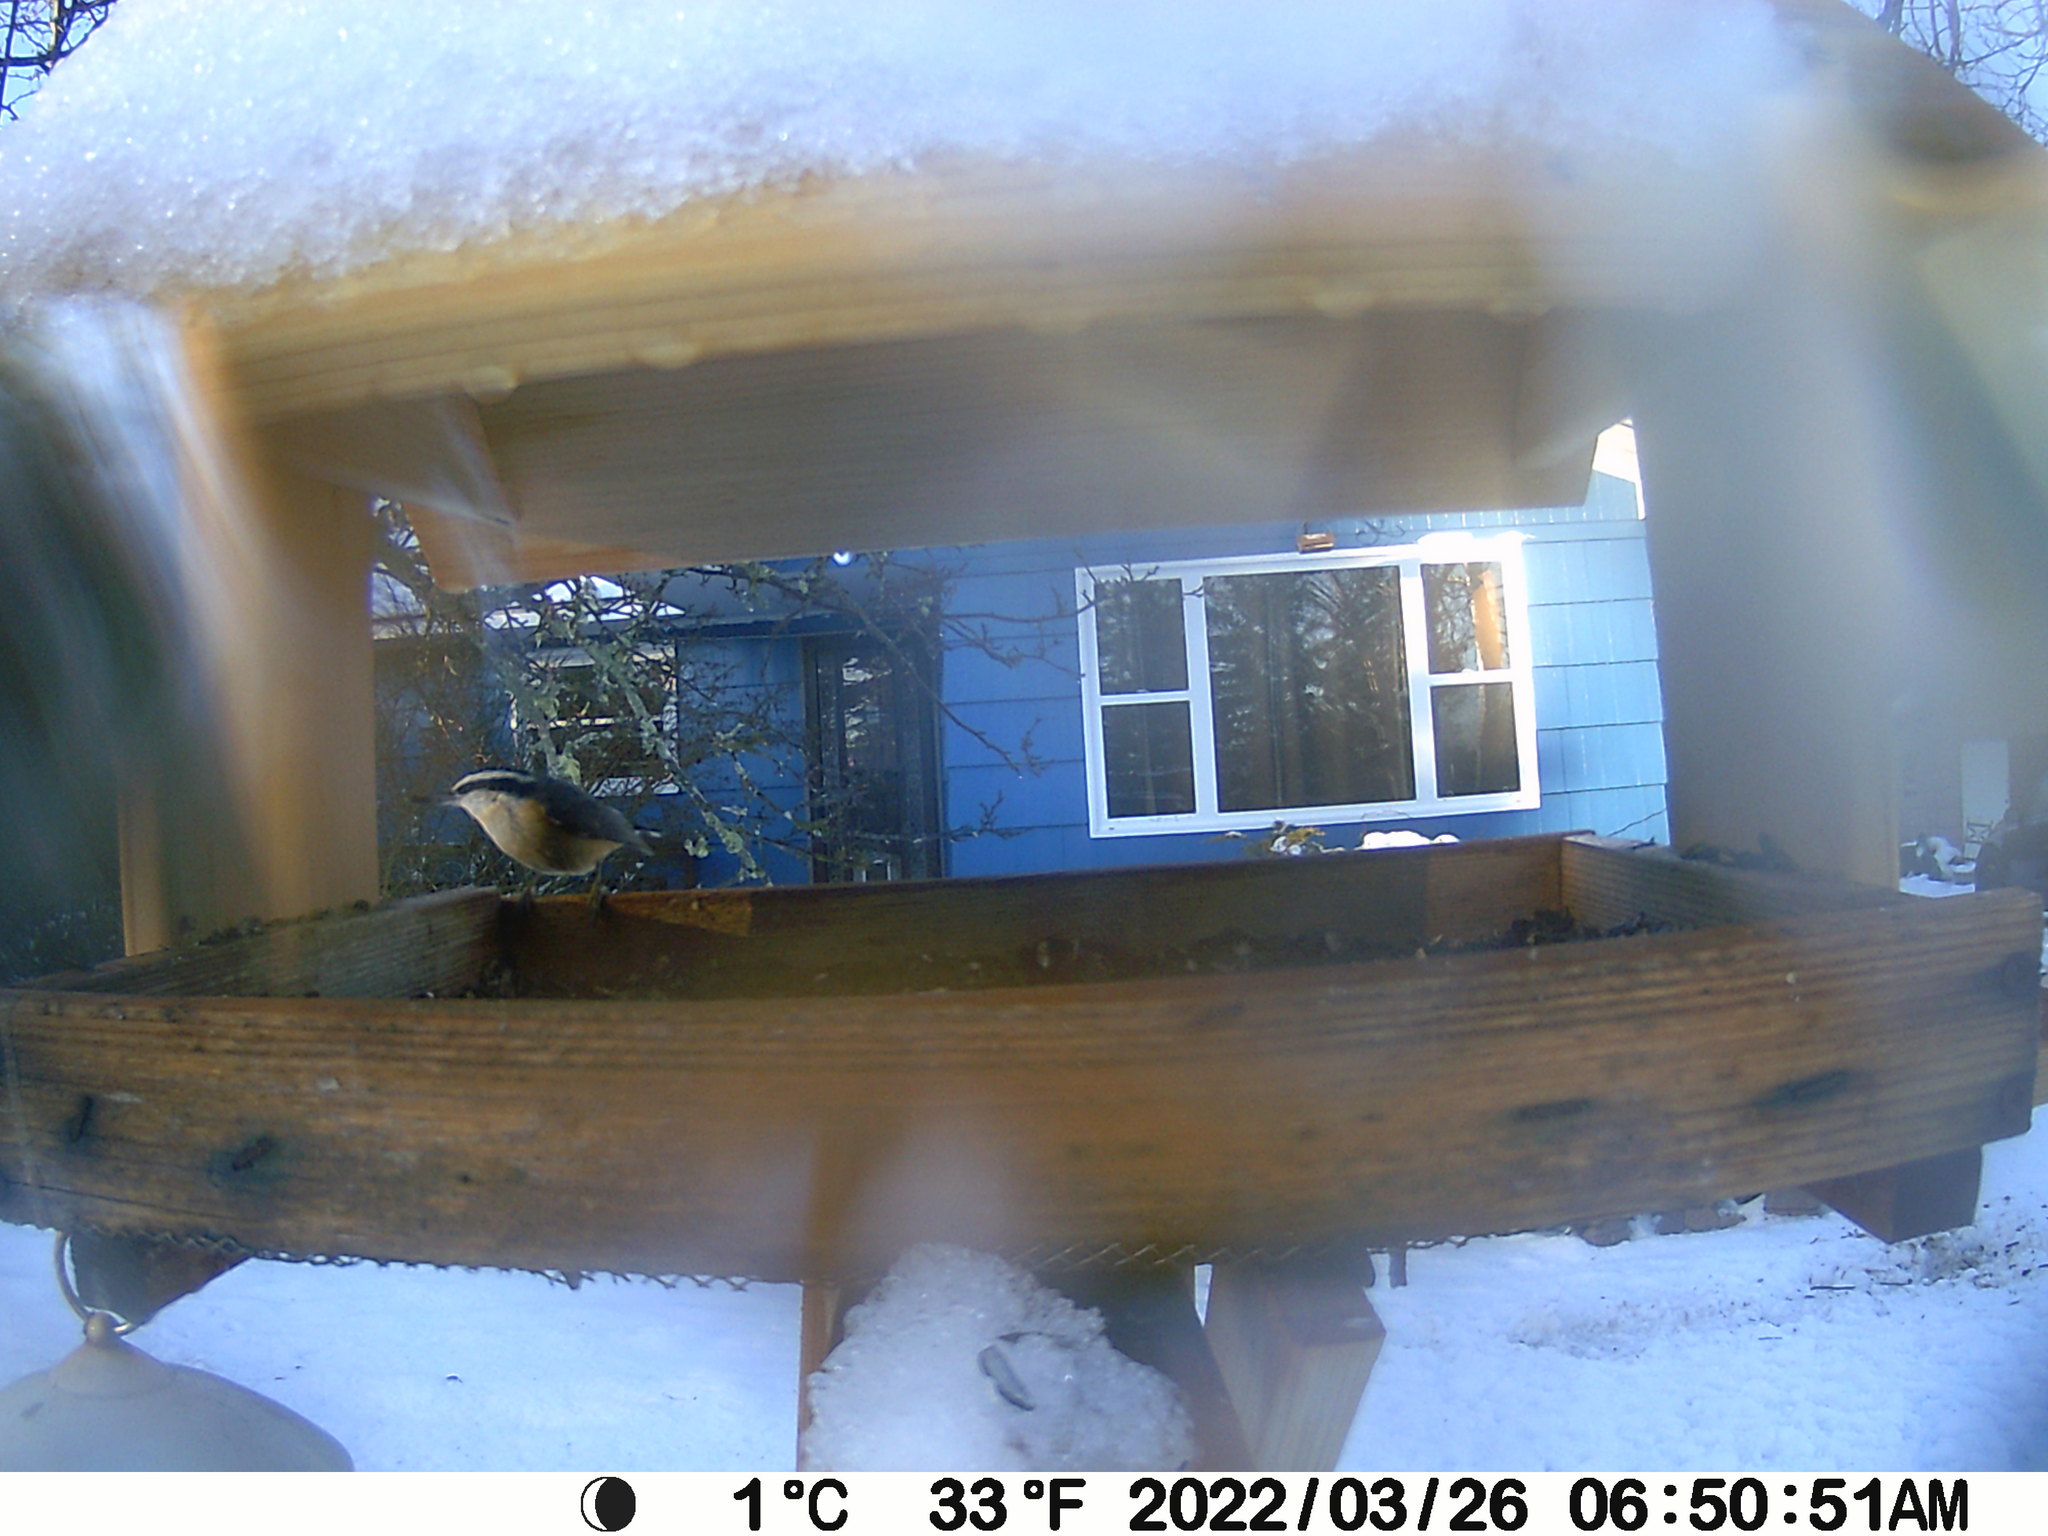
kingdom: Animalia
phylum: Chordata
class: Aves
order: Passeriformes
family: Sittidae
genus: Sitta
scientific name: Sitta canadensis
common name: Red-breasted nuthatch
